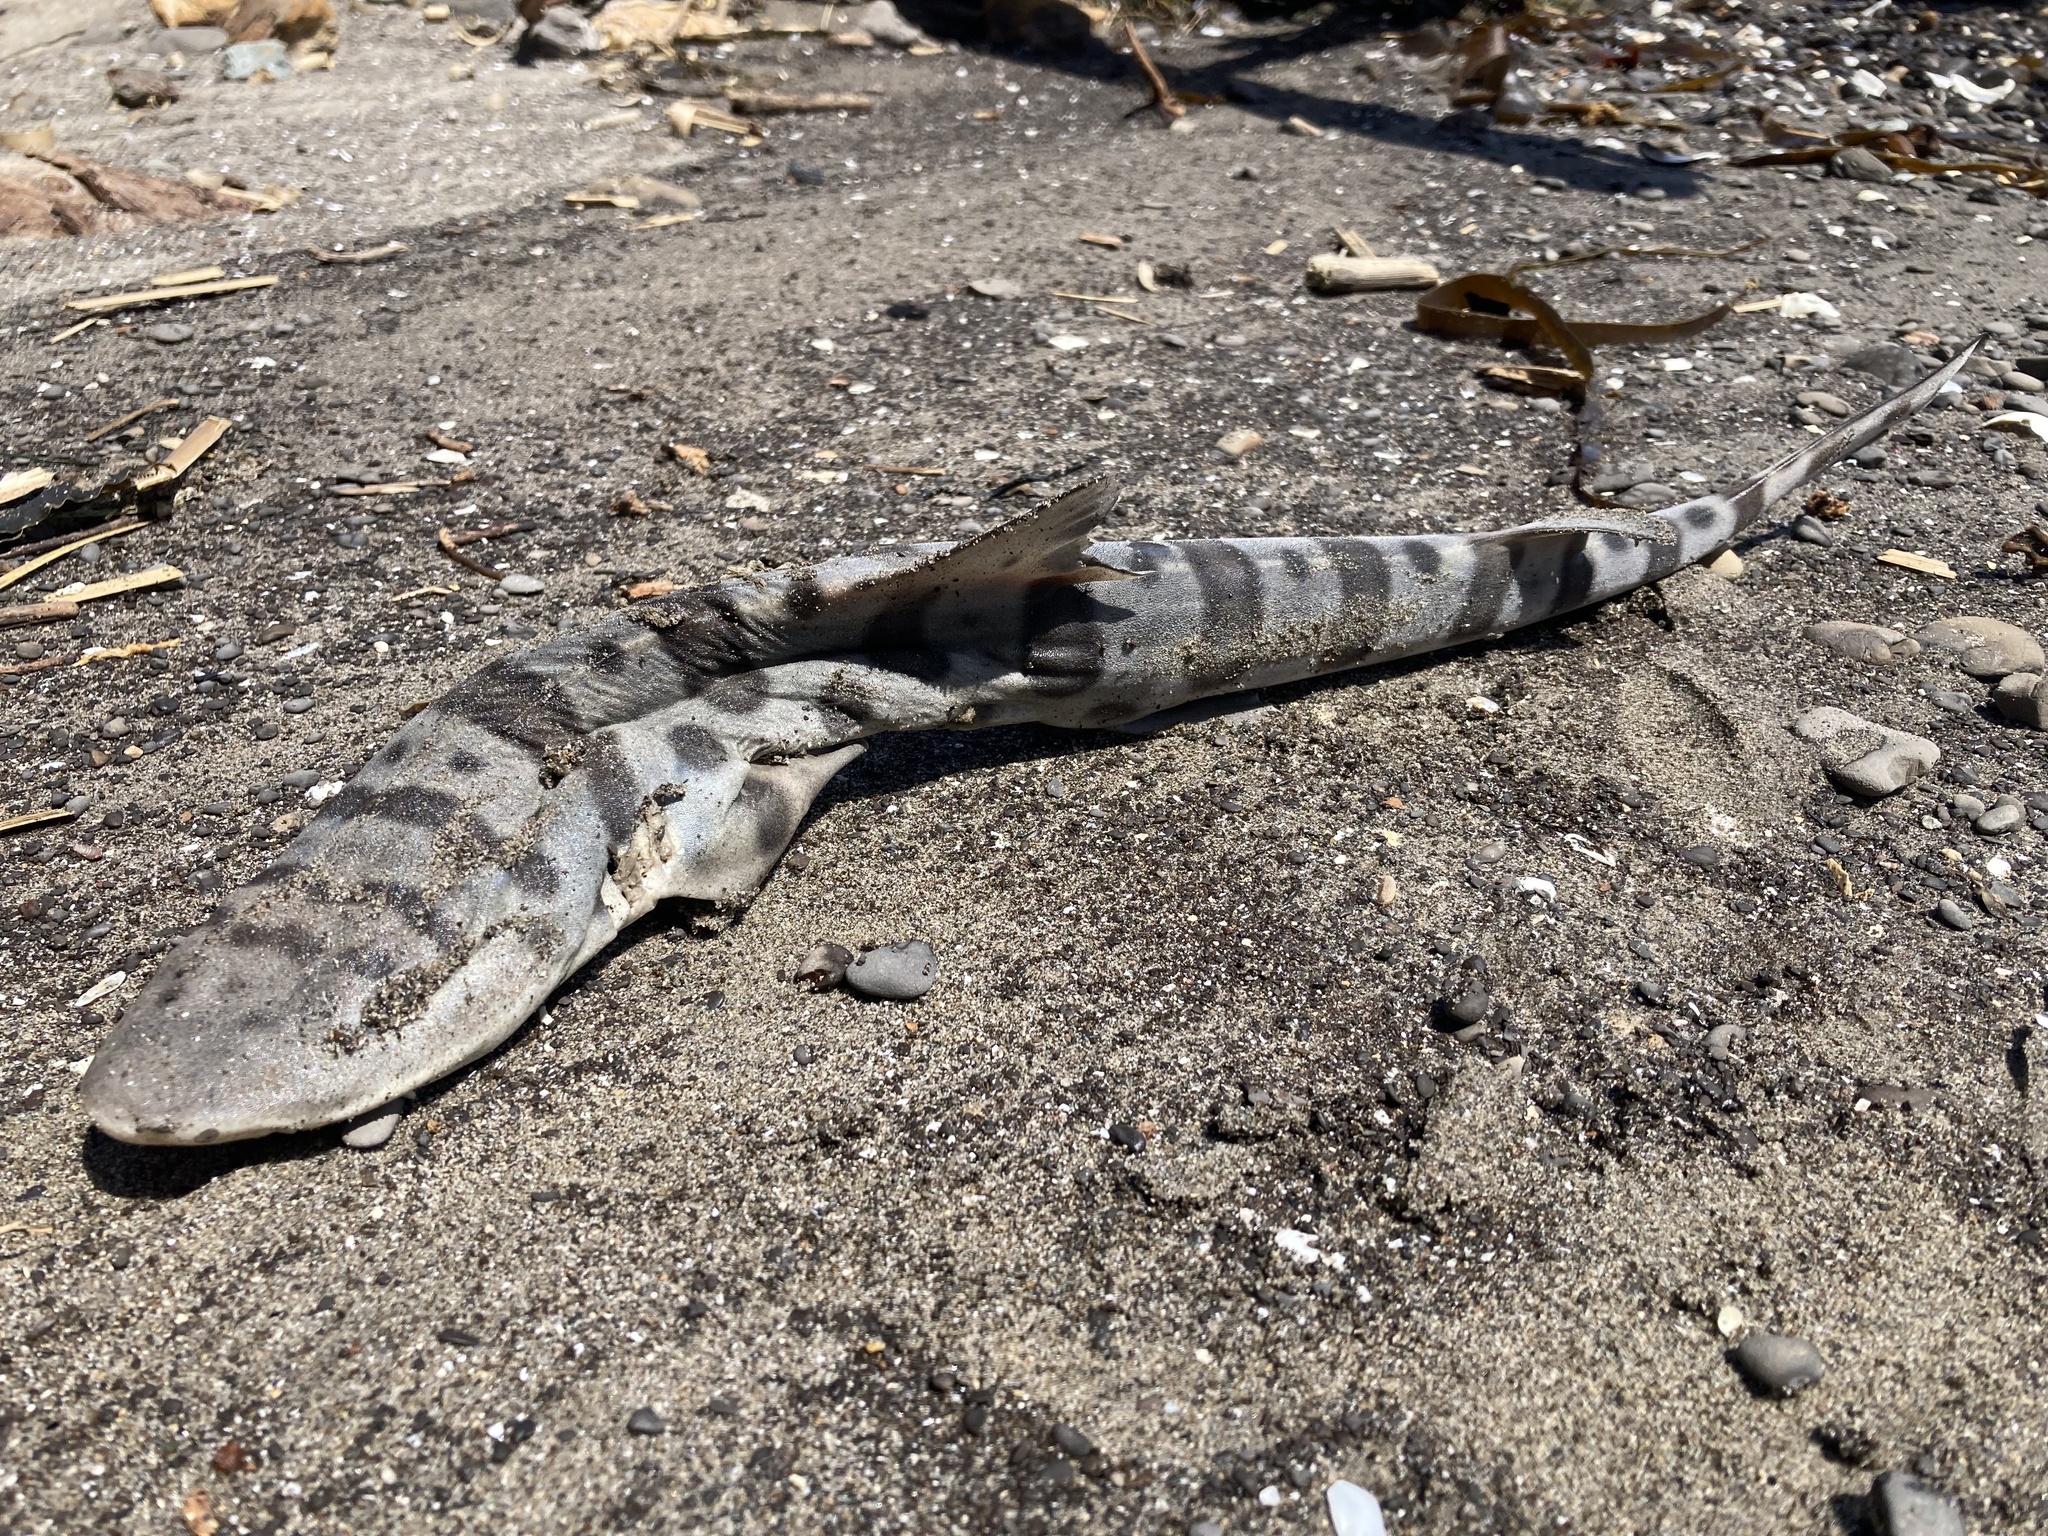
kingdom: Animalia
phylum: Chordata
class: Elasmobranchii
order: Carcharhiniformes
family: Triakidae
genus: Triakis
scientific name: Triakis semifasciata
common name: Leopard shark
